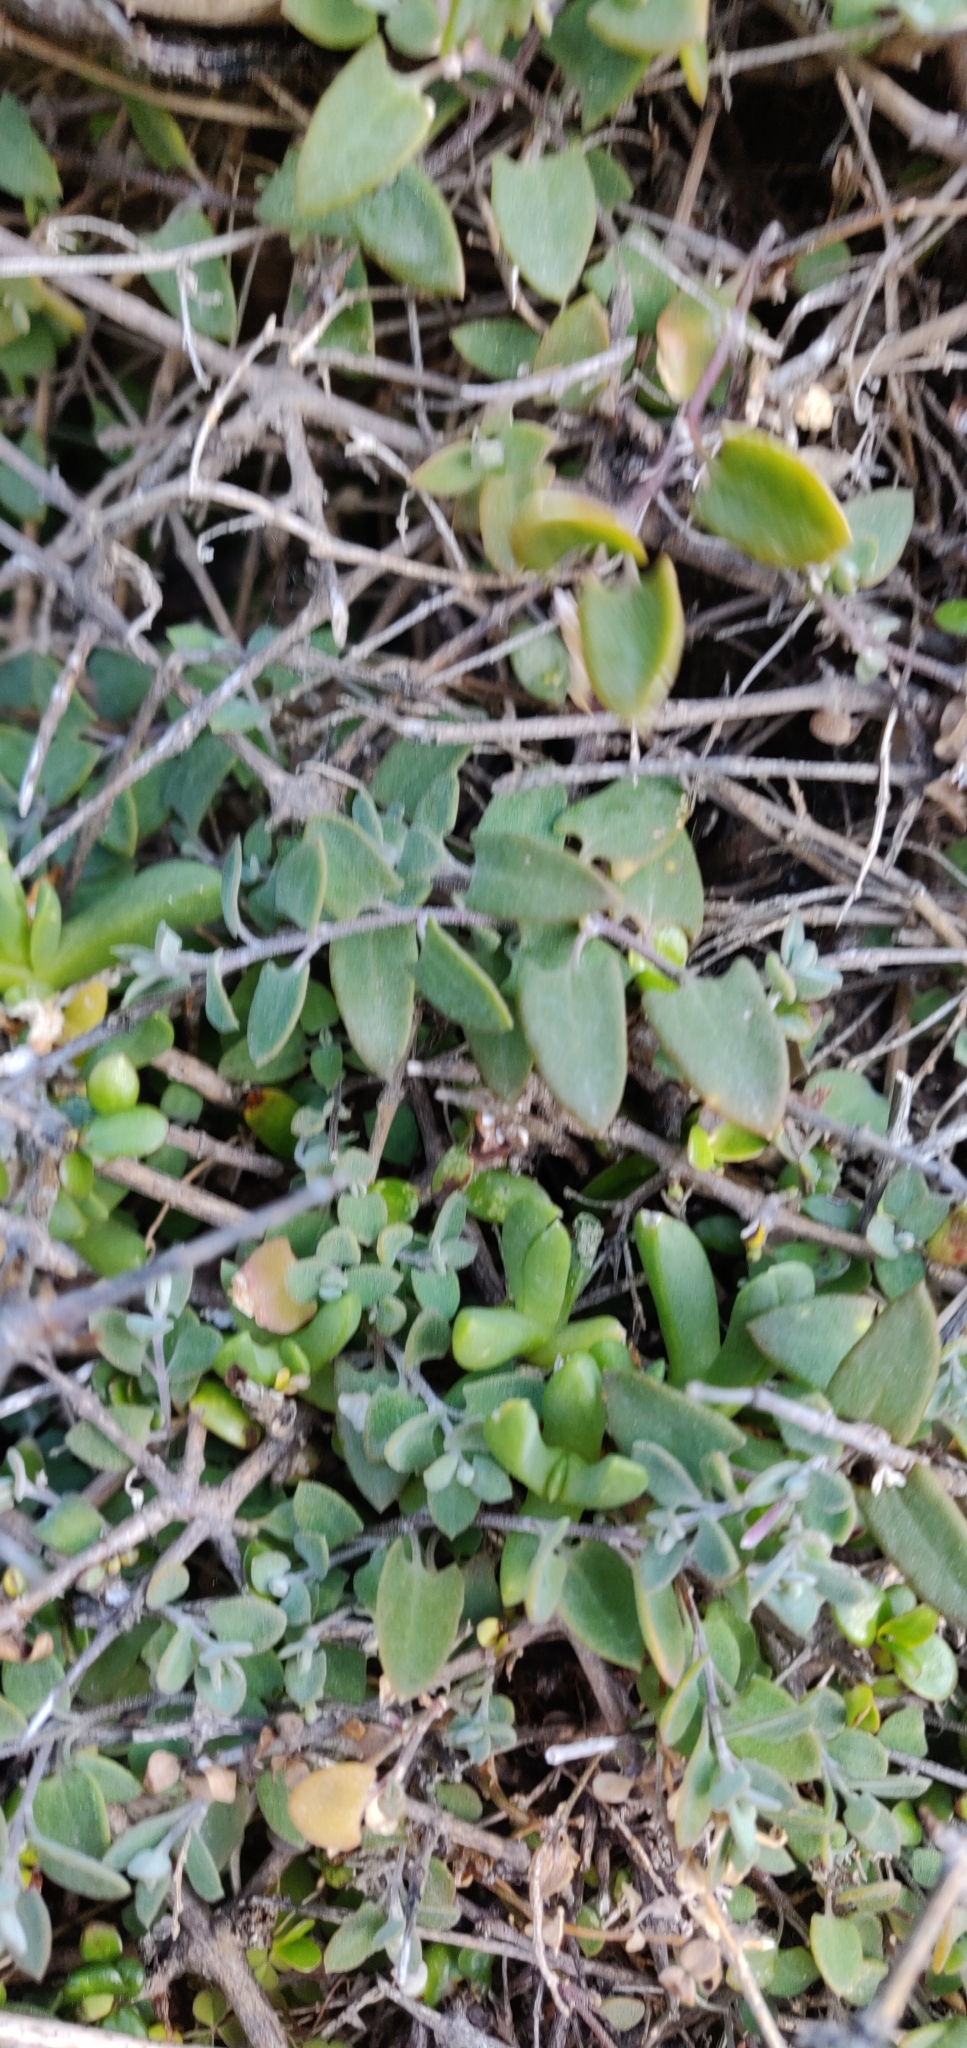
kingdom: Plantae
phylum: Tracheophyta
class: Magnoliopsida
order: Caryophyllales
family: Amaranthaceae
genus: Chenopodium
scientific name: Chenopodium triandrum
